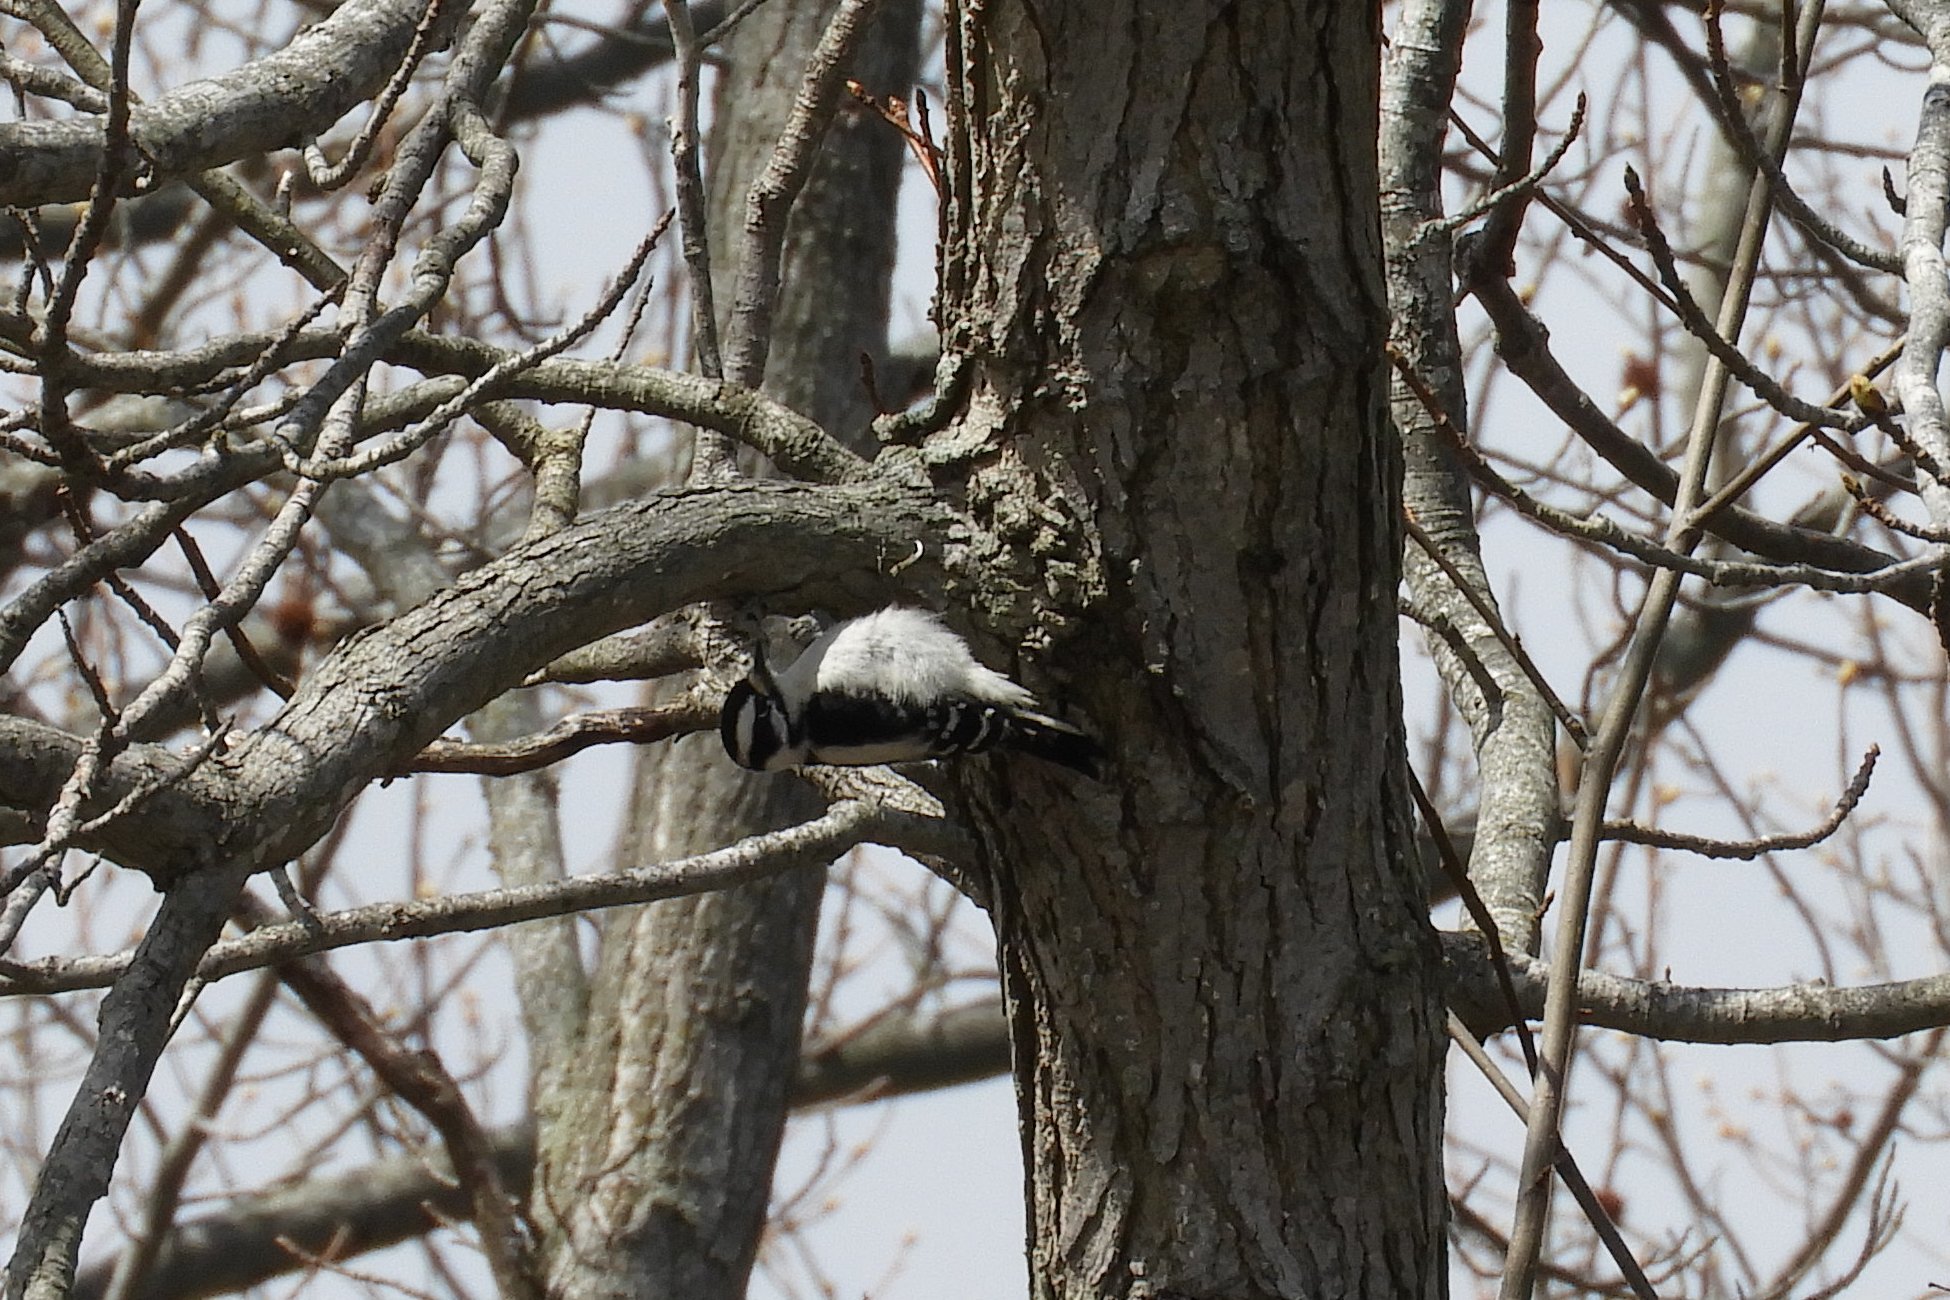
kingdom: Animalia
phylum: Chordata
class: Aves
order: Piciformes
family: Picidae
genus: Dryobates
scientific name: Dryobates pubescens
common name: Downy woodpecker
